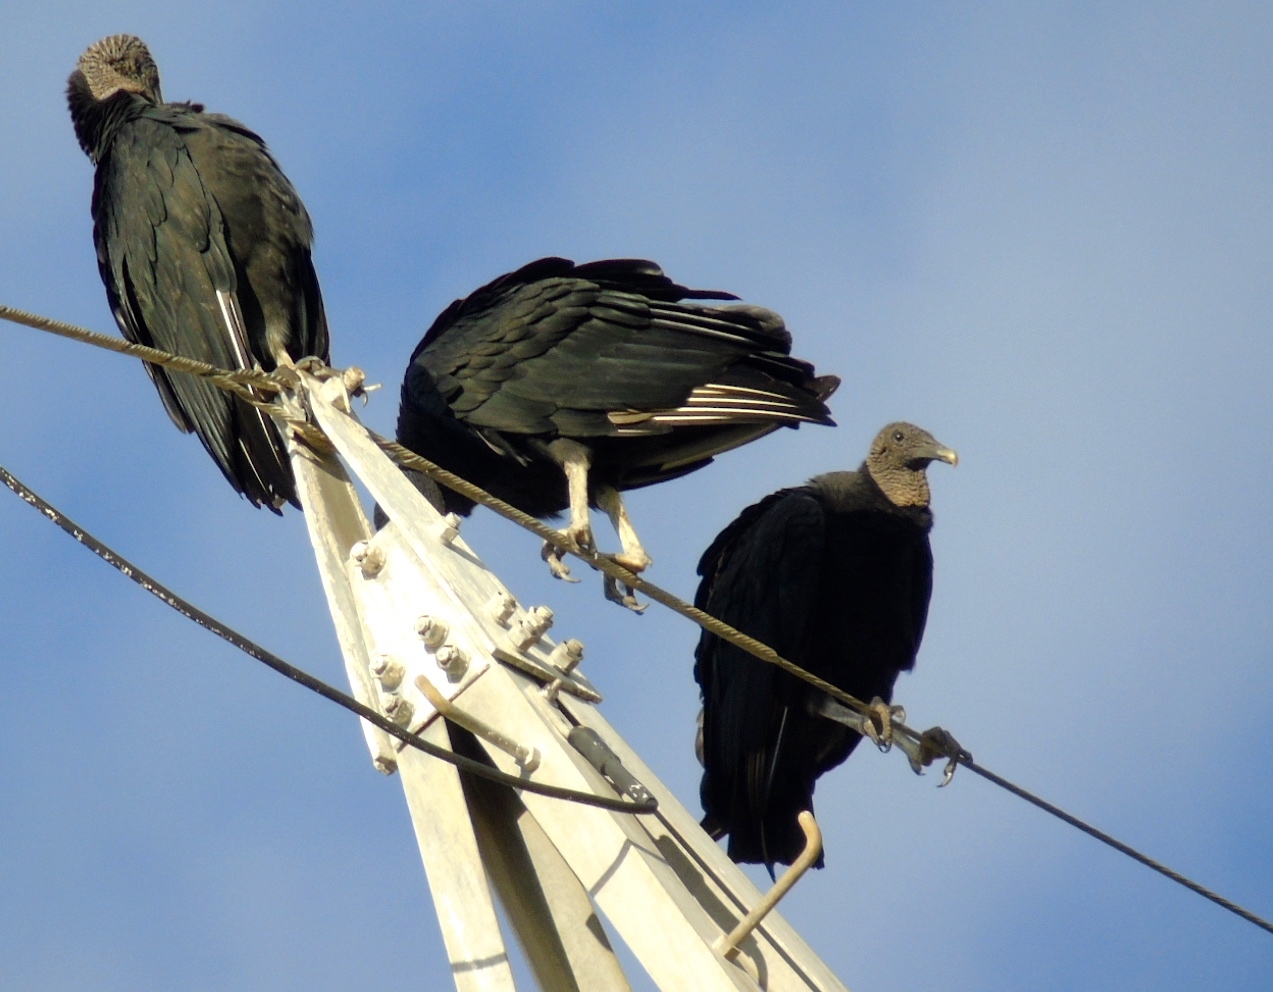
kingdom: Animalia
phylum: Chordata
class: Aves
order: Accipitriformes
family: Cathartidae
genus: Coragyps
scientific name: Coragyps atratus
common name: Black vulture
